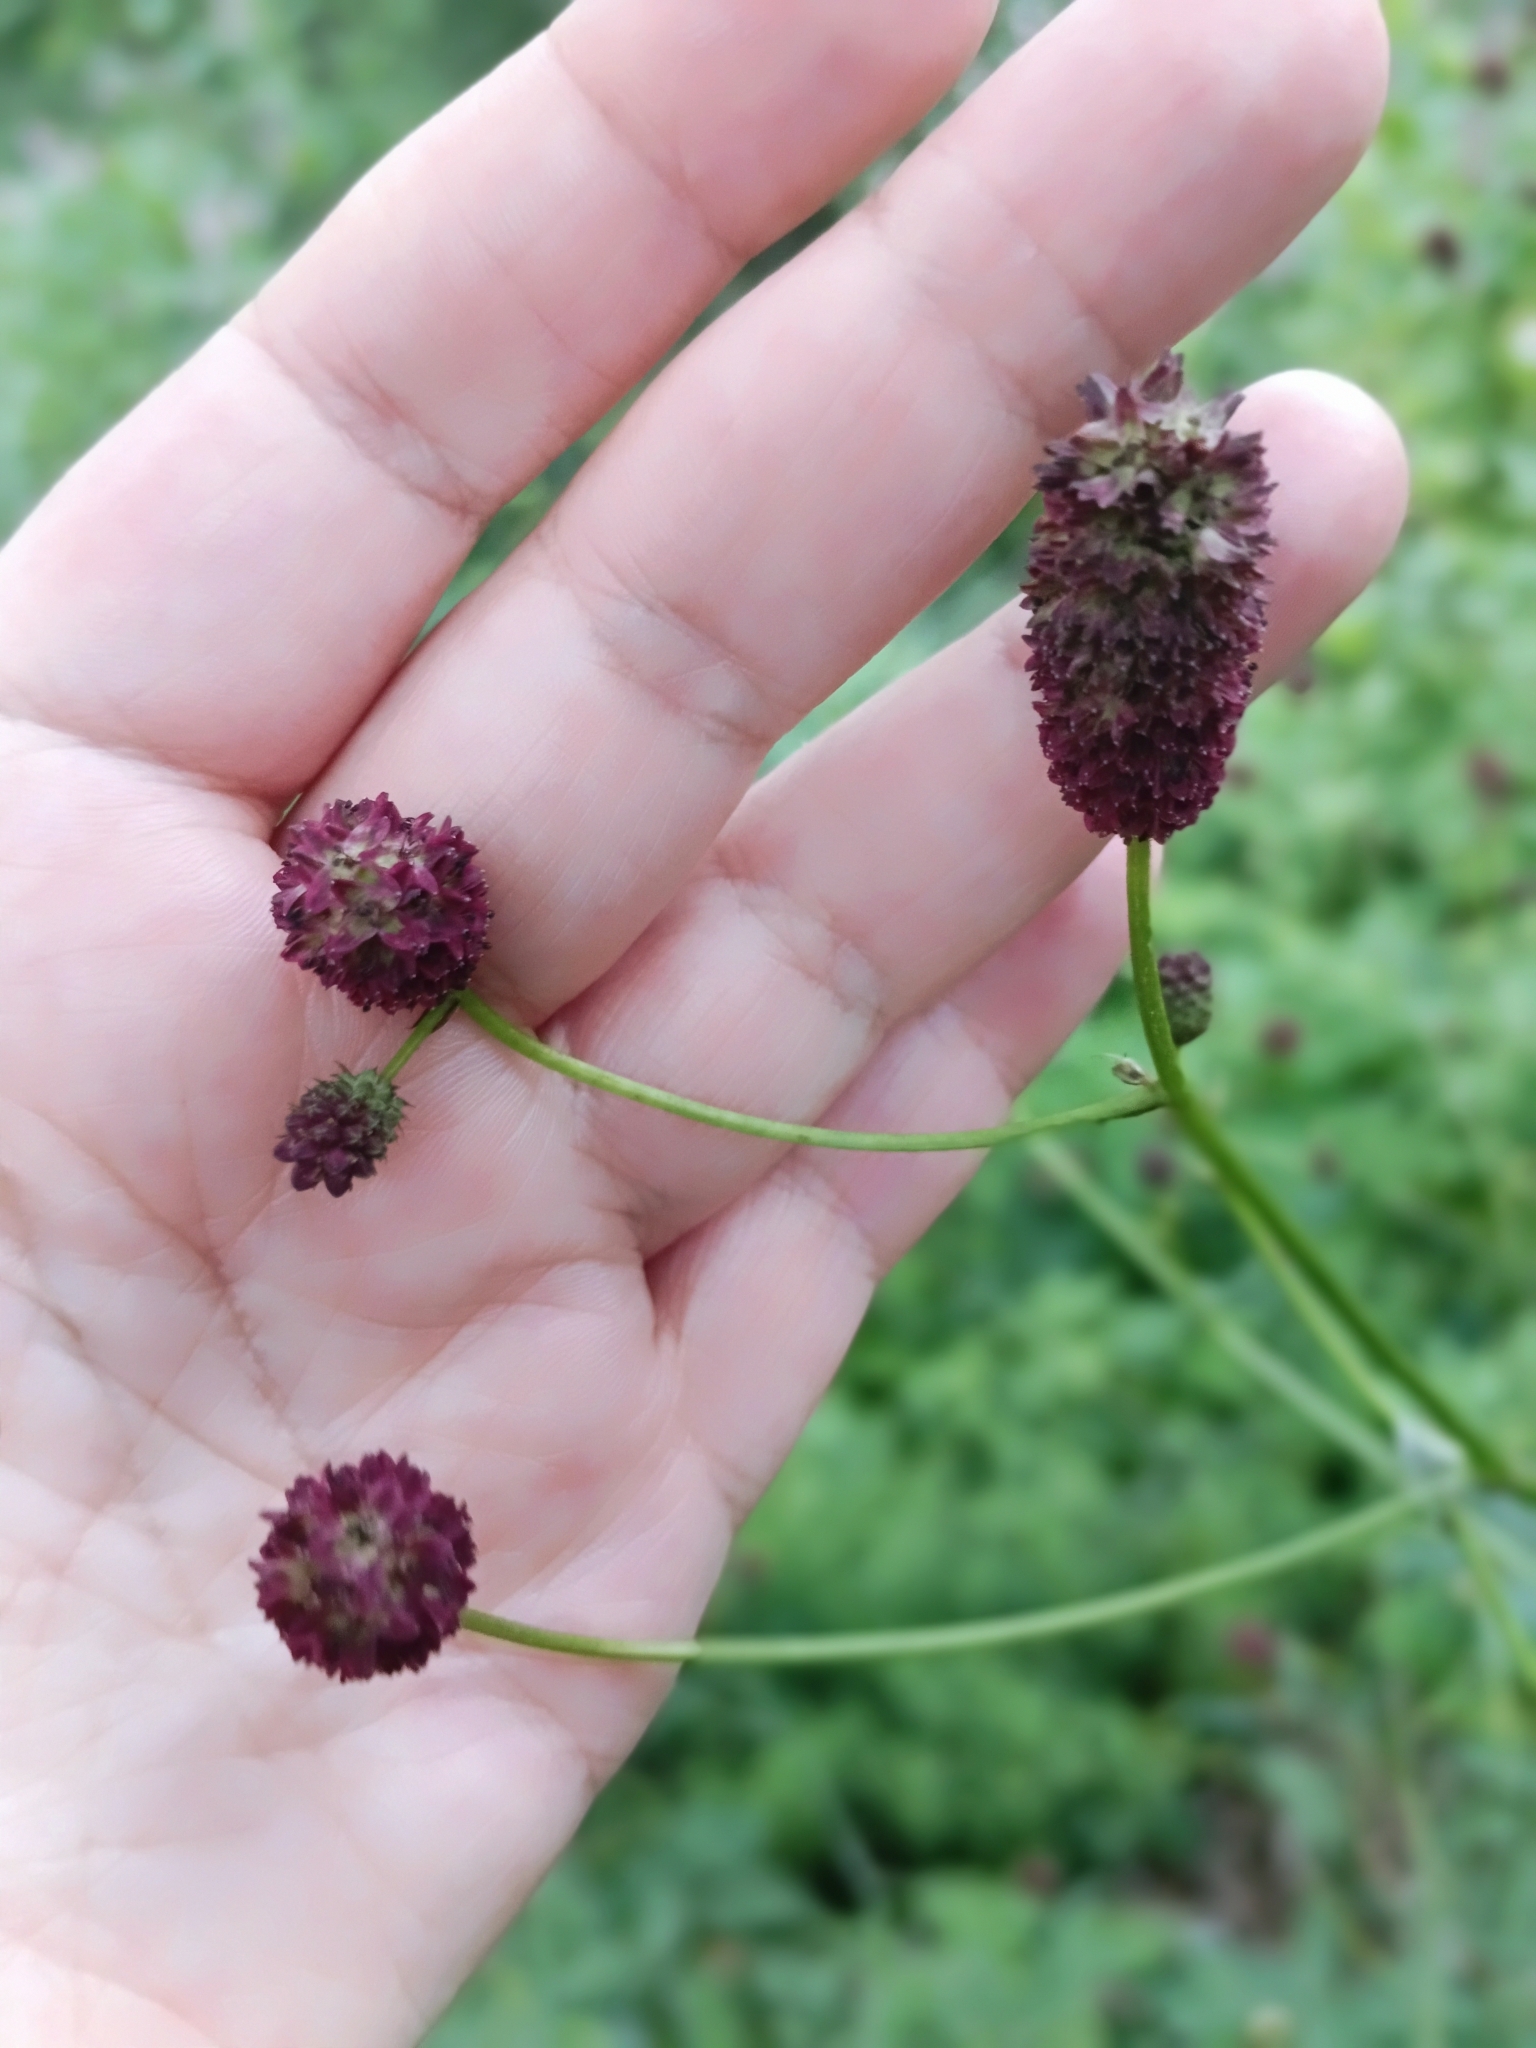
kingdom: Plantae
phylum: Tracheophyta
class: Magnoliopsida
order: Rosales
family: Rosaceae
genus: Sanguisorba
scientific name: Sanguisorba officinalis
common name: Great burnet
